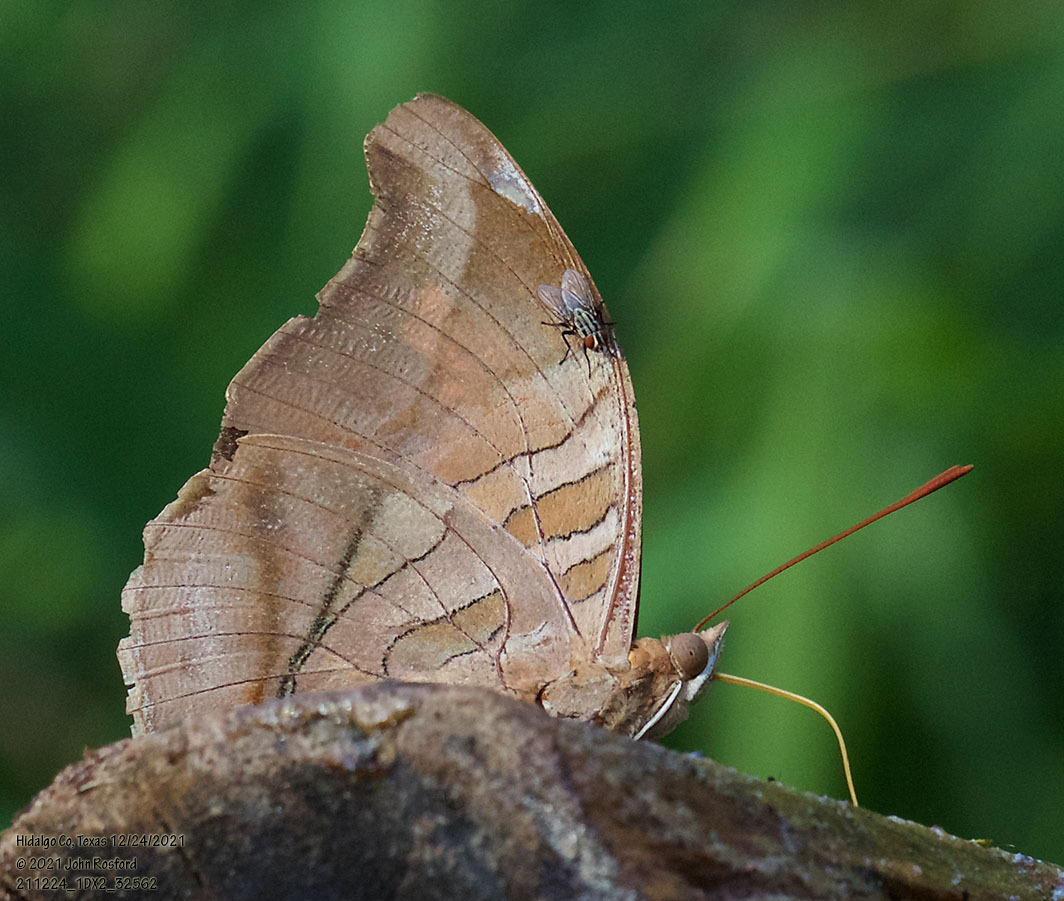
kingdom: Animalia
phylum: Arthropoda
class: Insecta
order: Lepidoptera
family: Nymphalidae
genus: Historis
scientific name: Historis odius
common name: Orion cecropian
